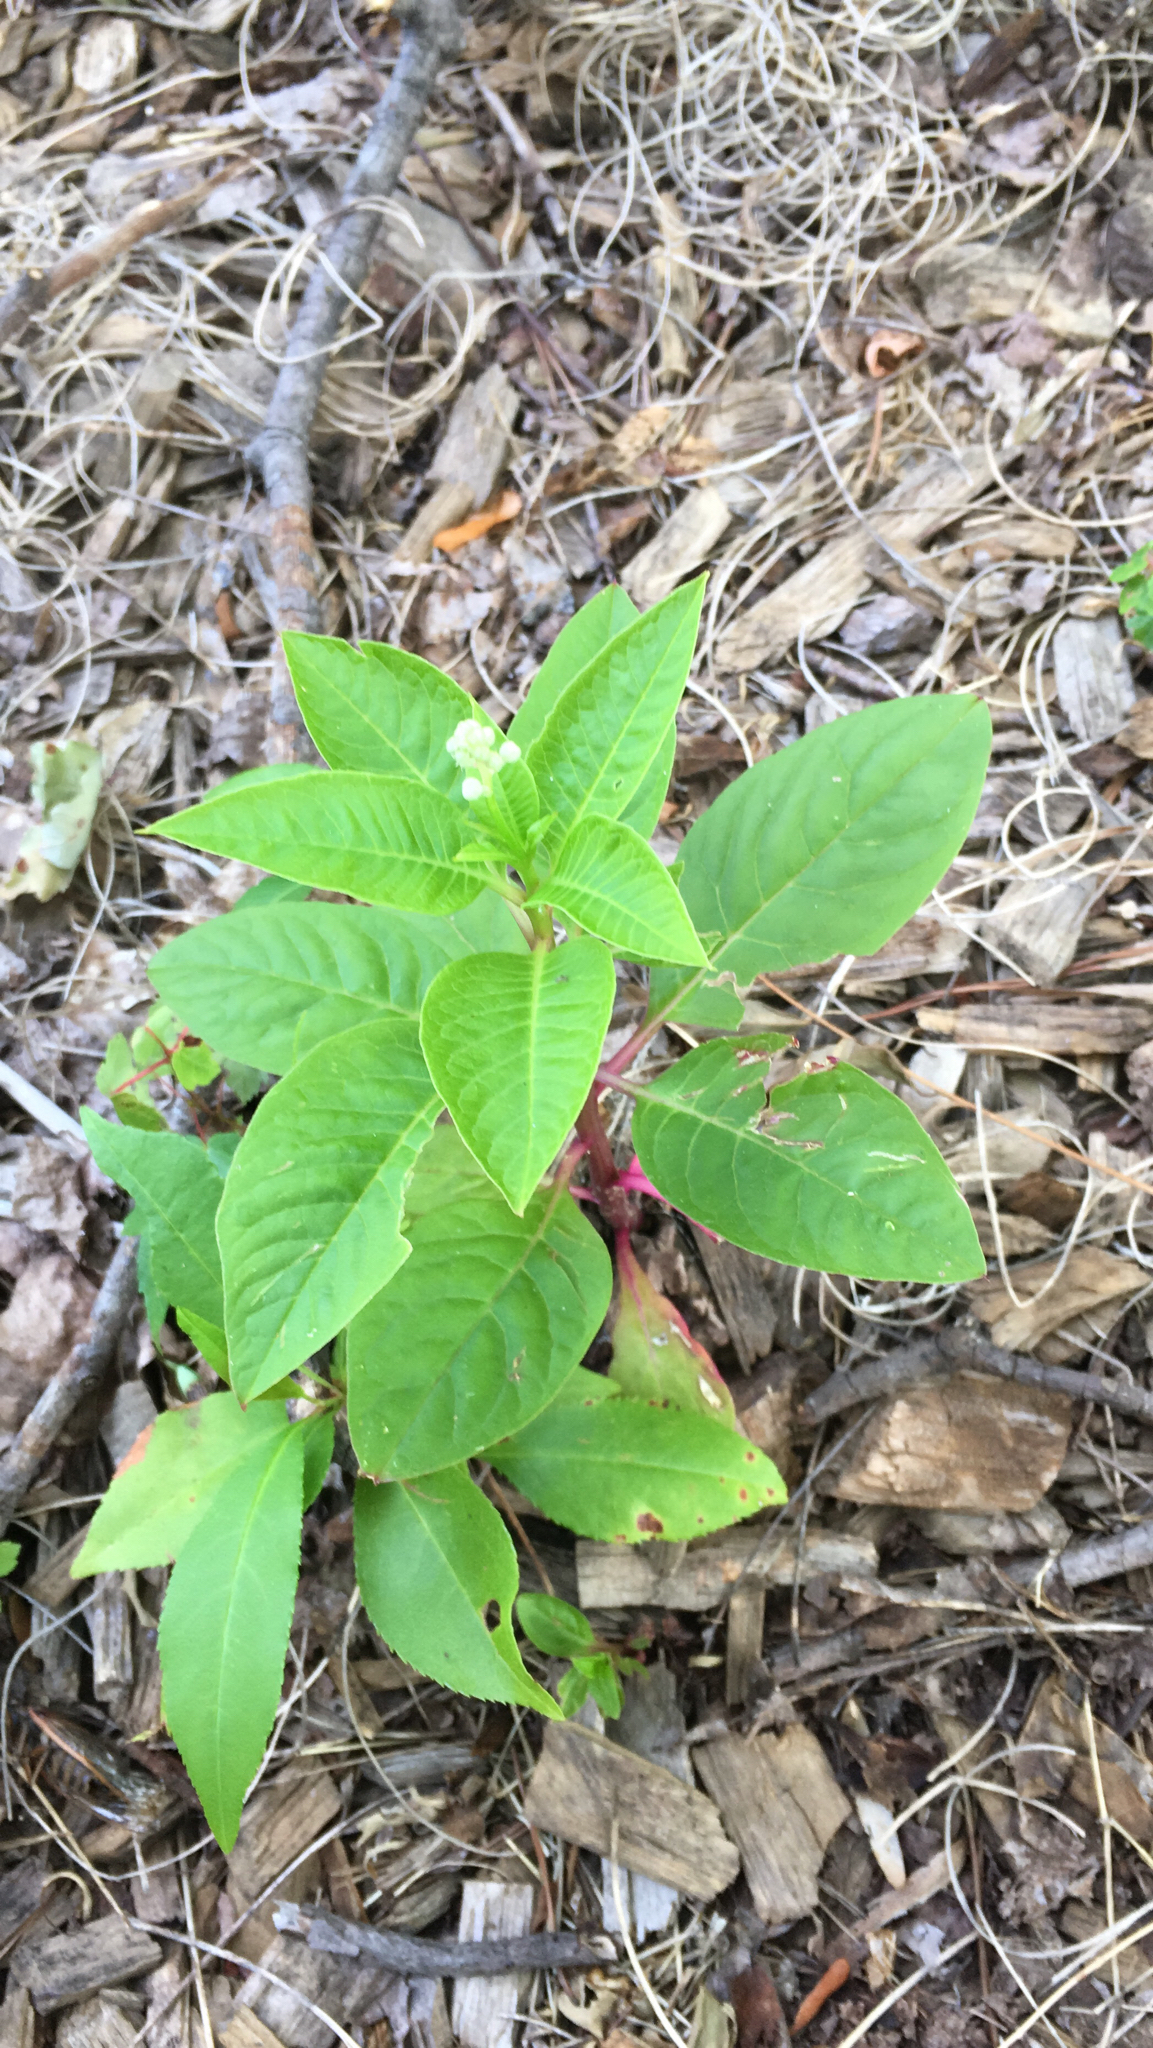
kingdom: Plantae
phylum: Tracheophyta
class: Magnoliopsida
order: Caryophyllales
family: Phytolaccaceae
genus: Phytolacca
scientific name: Phytolacca americana
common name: American pokeweed
